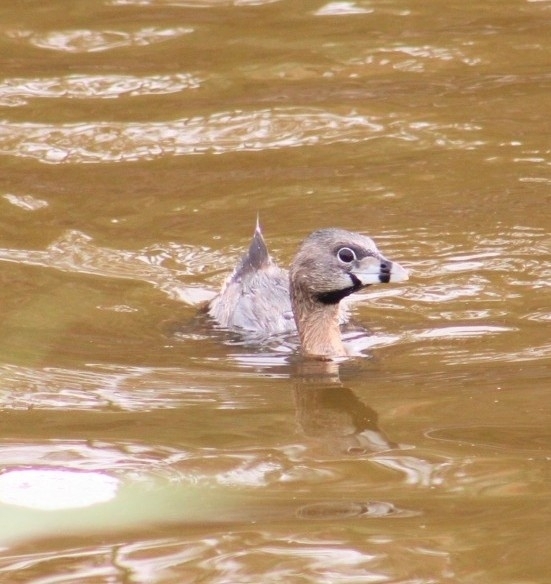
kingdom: Animalia
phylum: Chordata
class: Aves
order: Podicipediformes
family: Podicipedidae
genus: Podilymbus
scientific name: Podilymbus podiceps
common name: Pied-billed grebe
